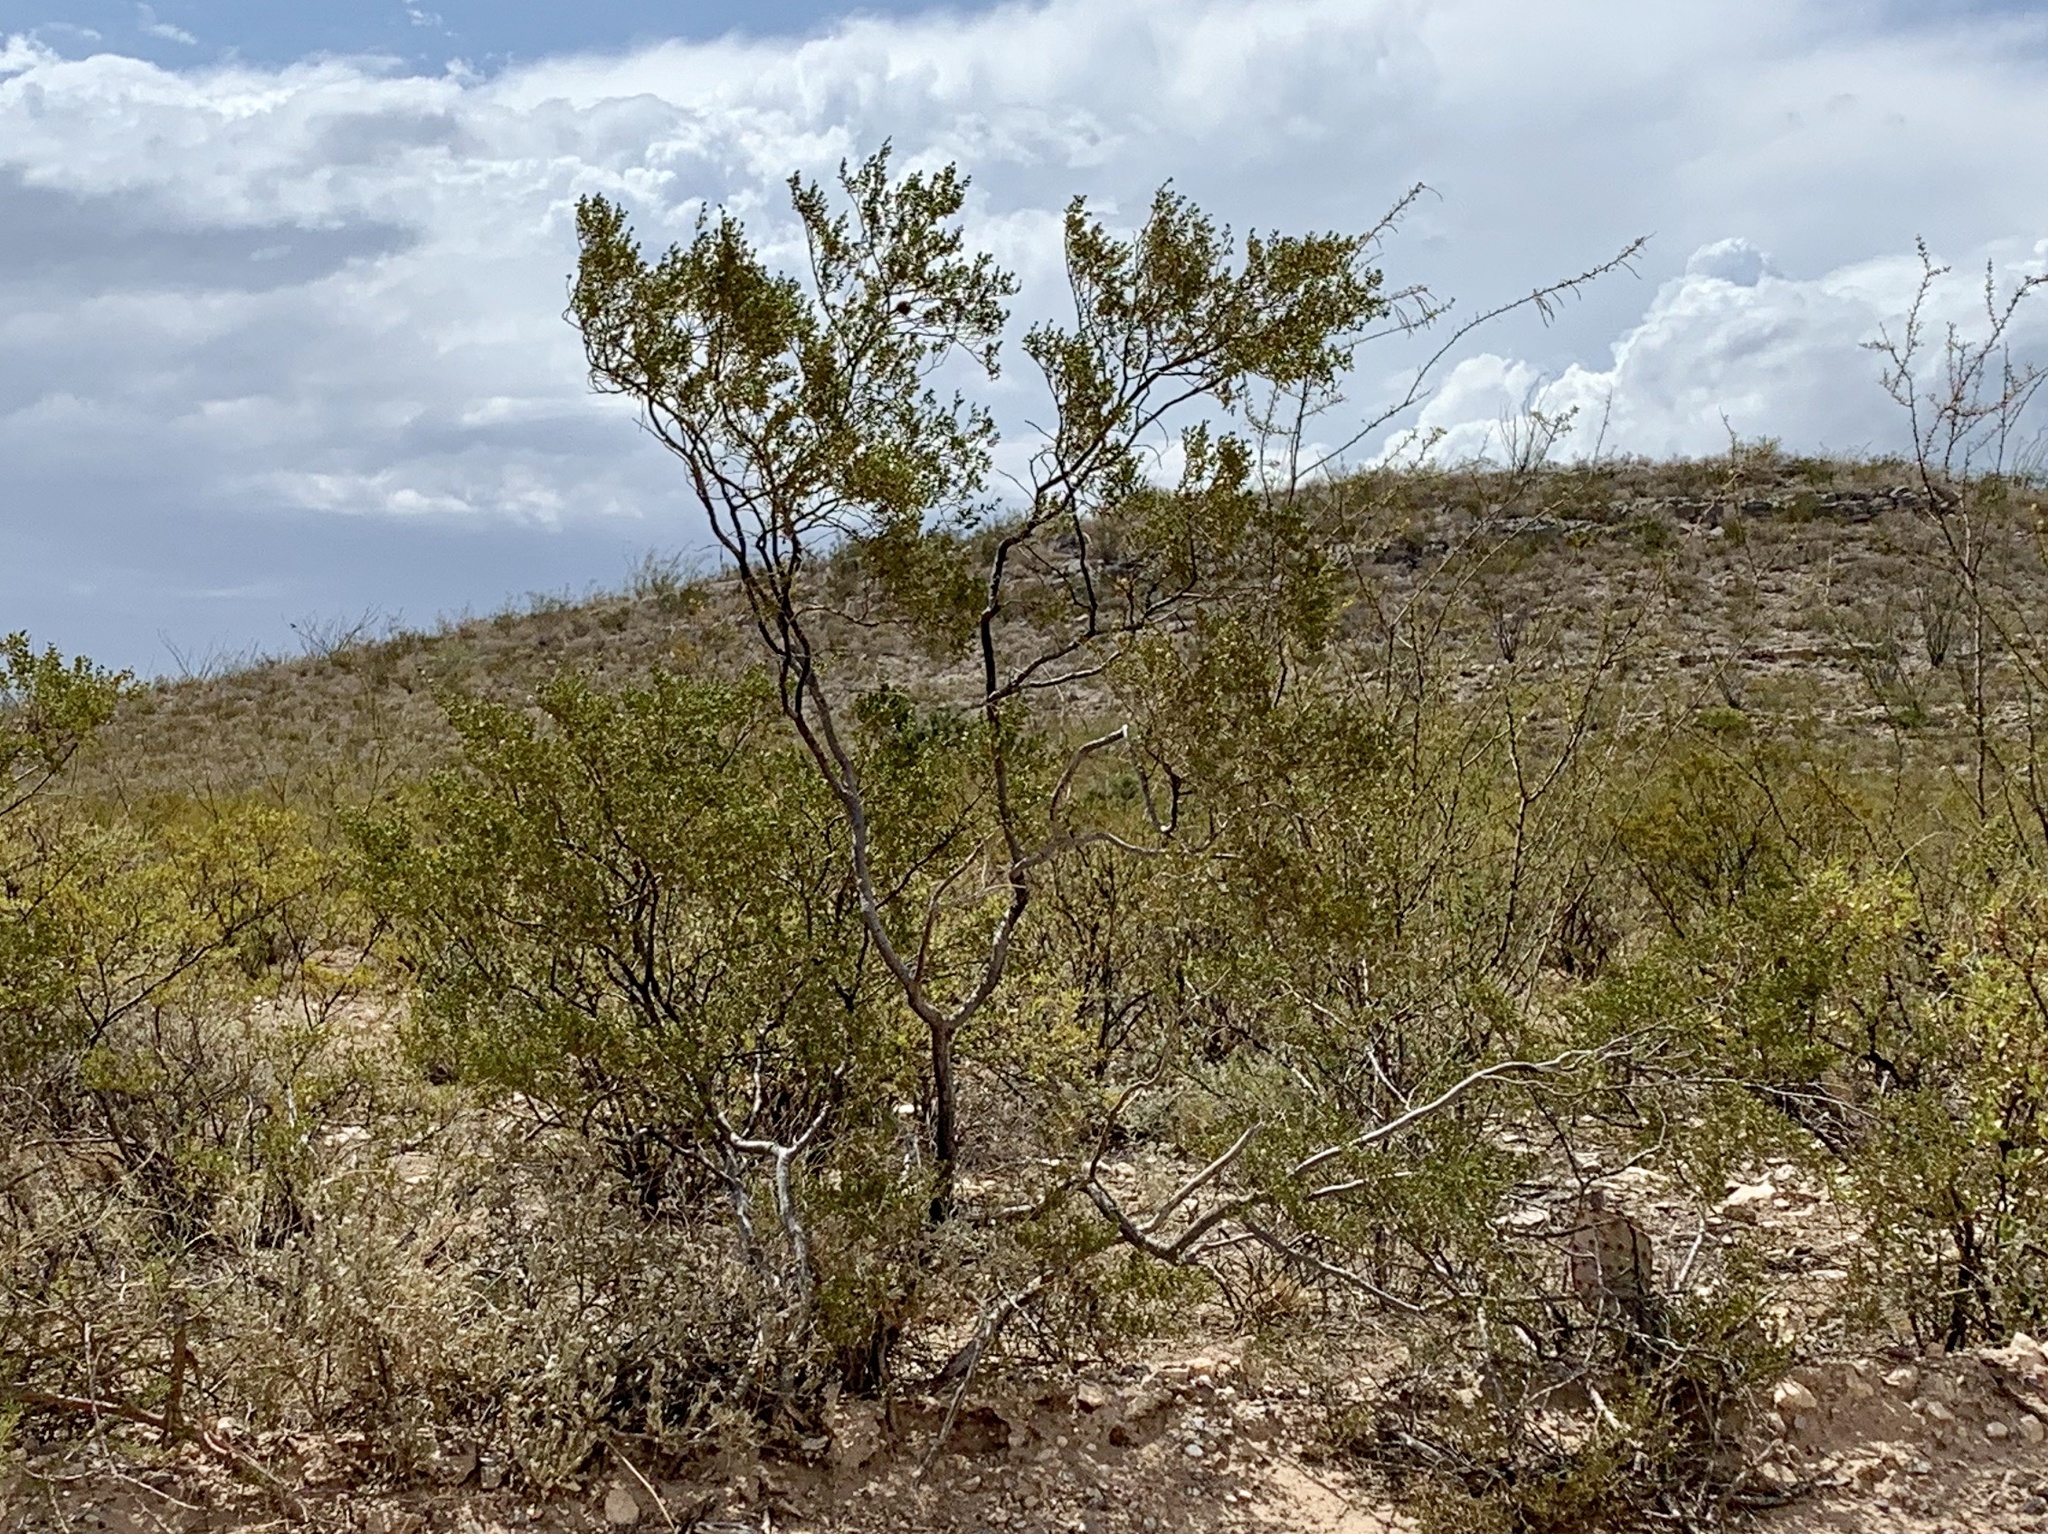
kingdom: Plantae
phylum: Tracheophyta
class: Magnoliopsida
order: Zygophyllales
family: Zygophyllaceae
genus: Larrea
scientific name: Larrea tridentata
